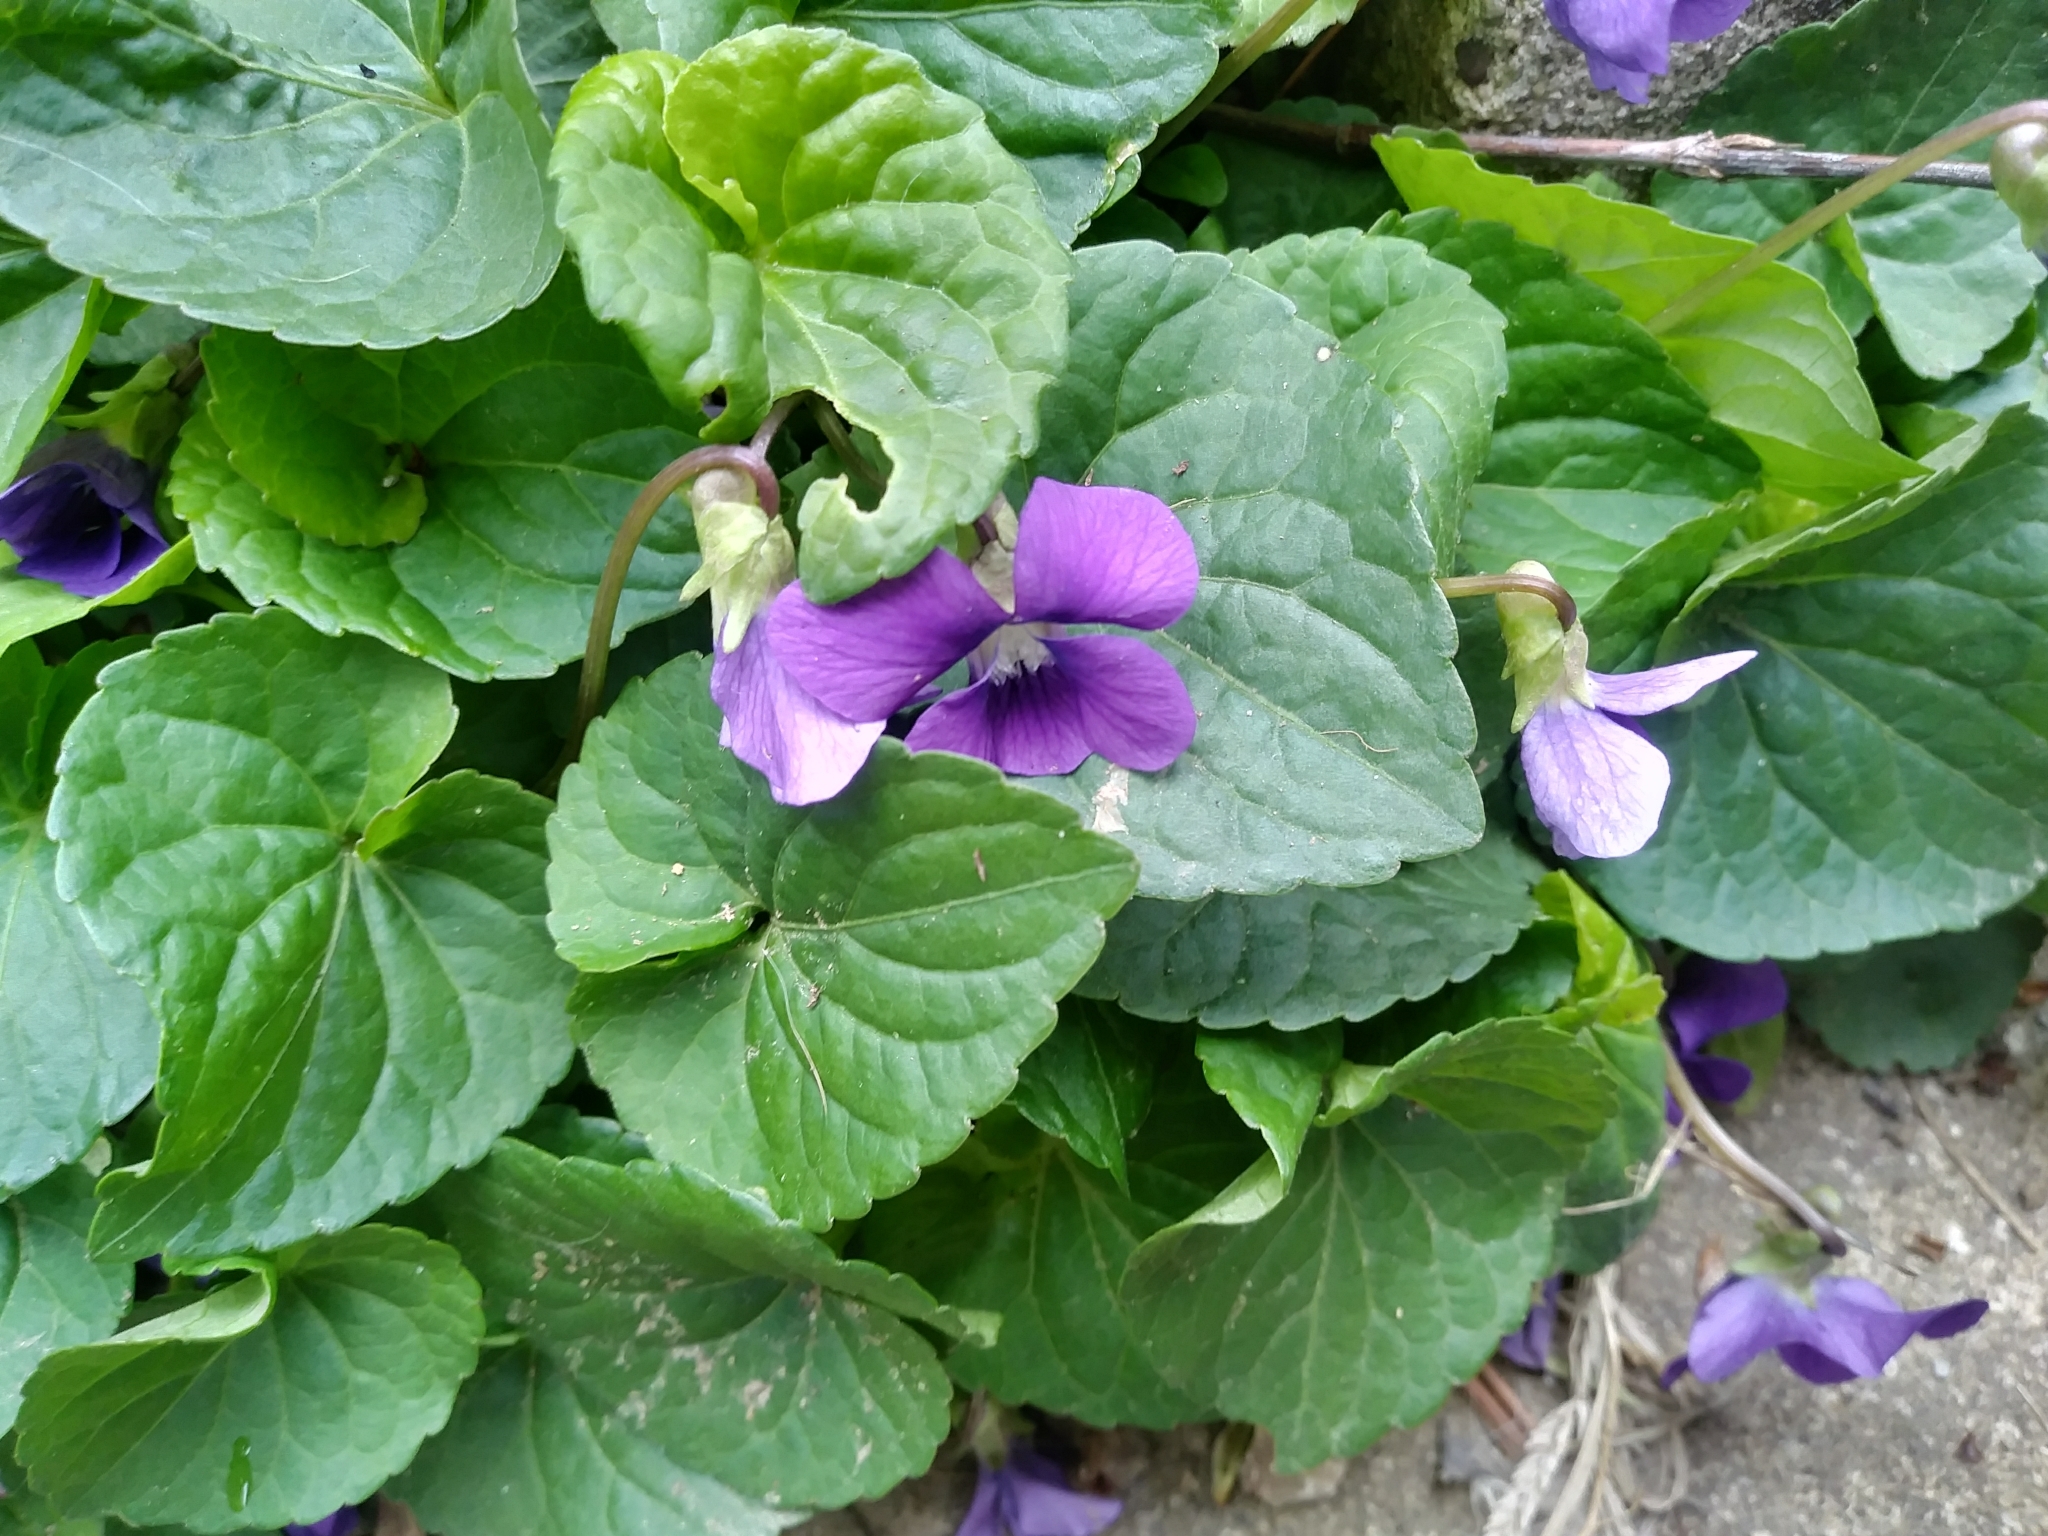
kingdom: Plantae
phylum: Tracheophyta
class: Magnoliopsida
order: Malpighiales
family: Violaceae
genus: Viola
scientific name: Viola sororia
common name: Dooryard violet
